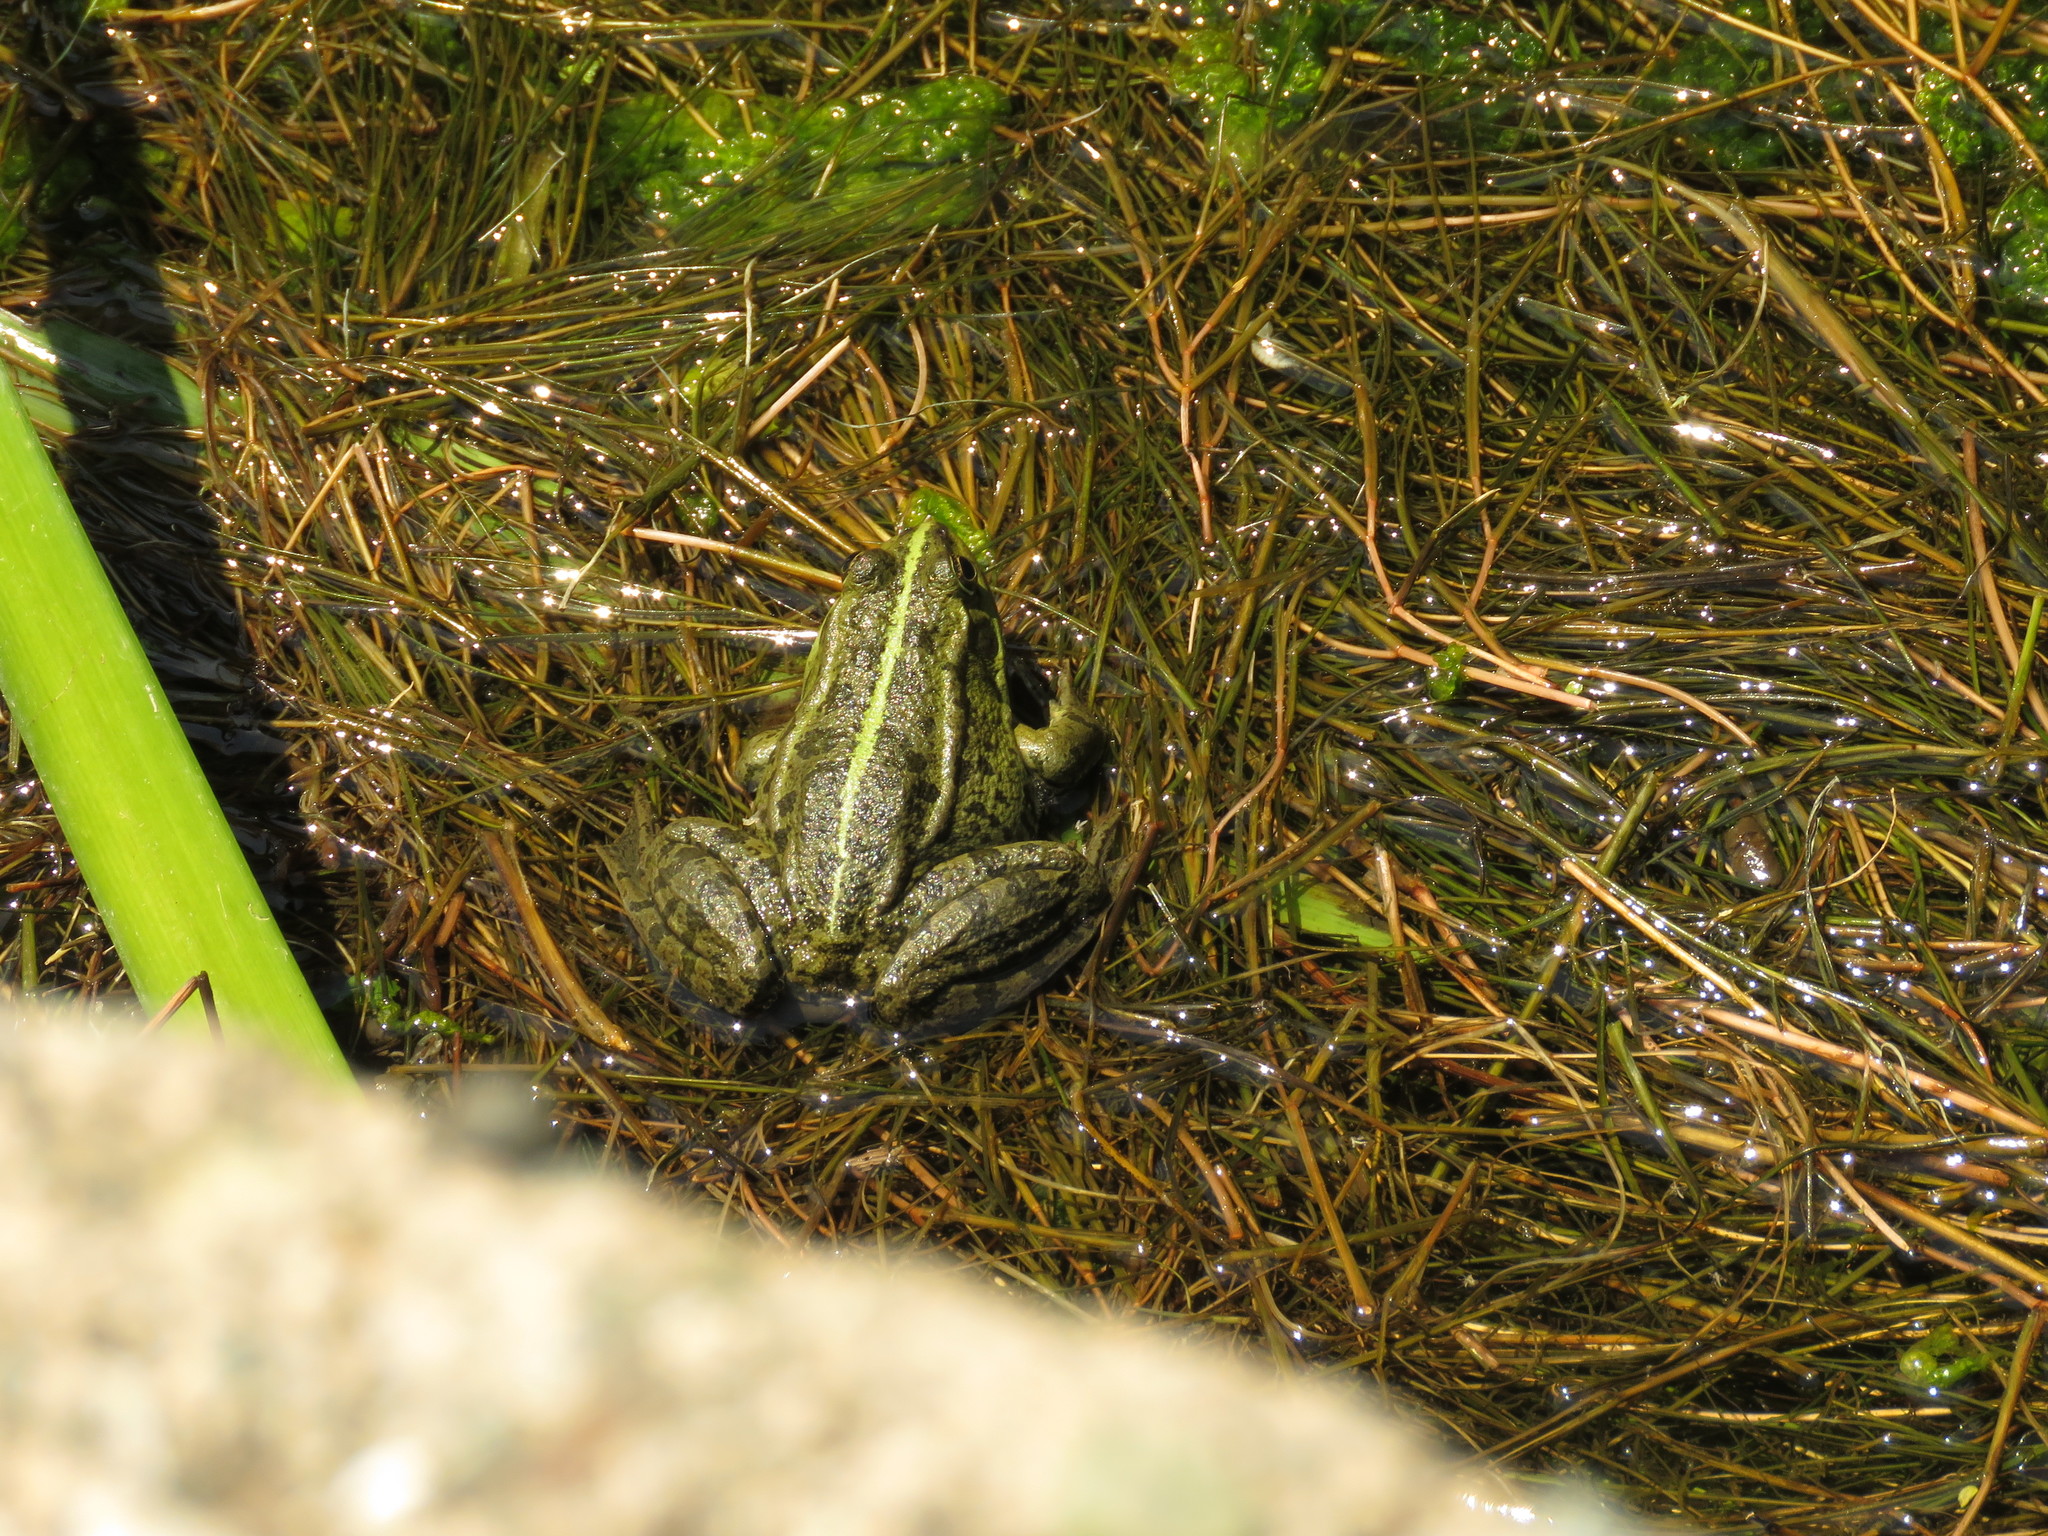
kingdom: Animalia
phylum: Chordata
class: Amphibia
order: Anura
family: Ranidae
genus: Pelophylax
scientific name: Pelophylax ridibundus
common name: Marsh frog
